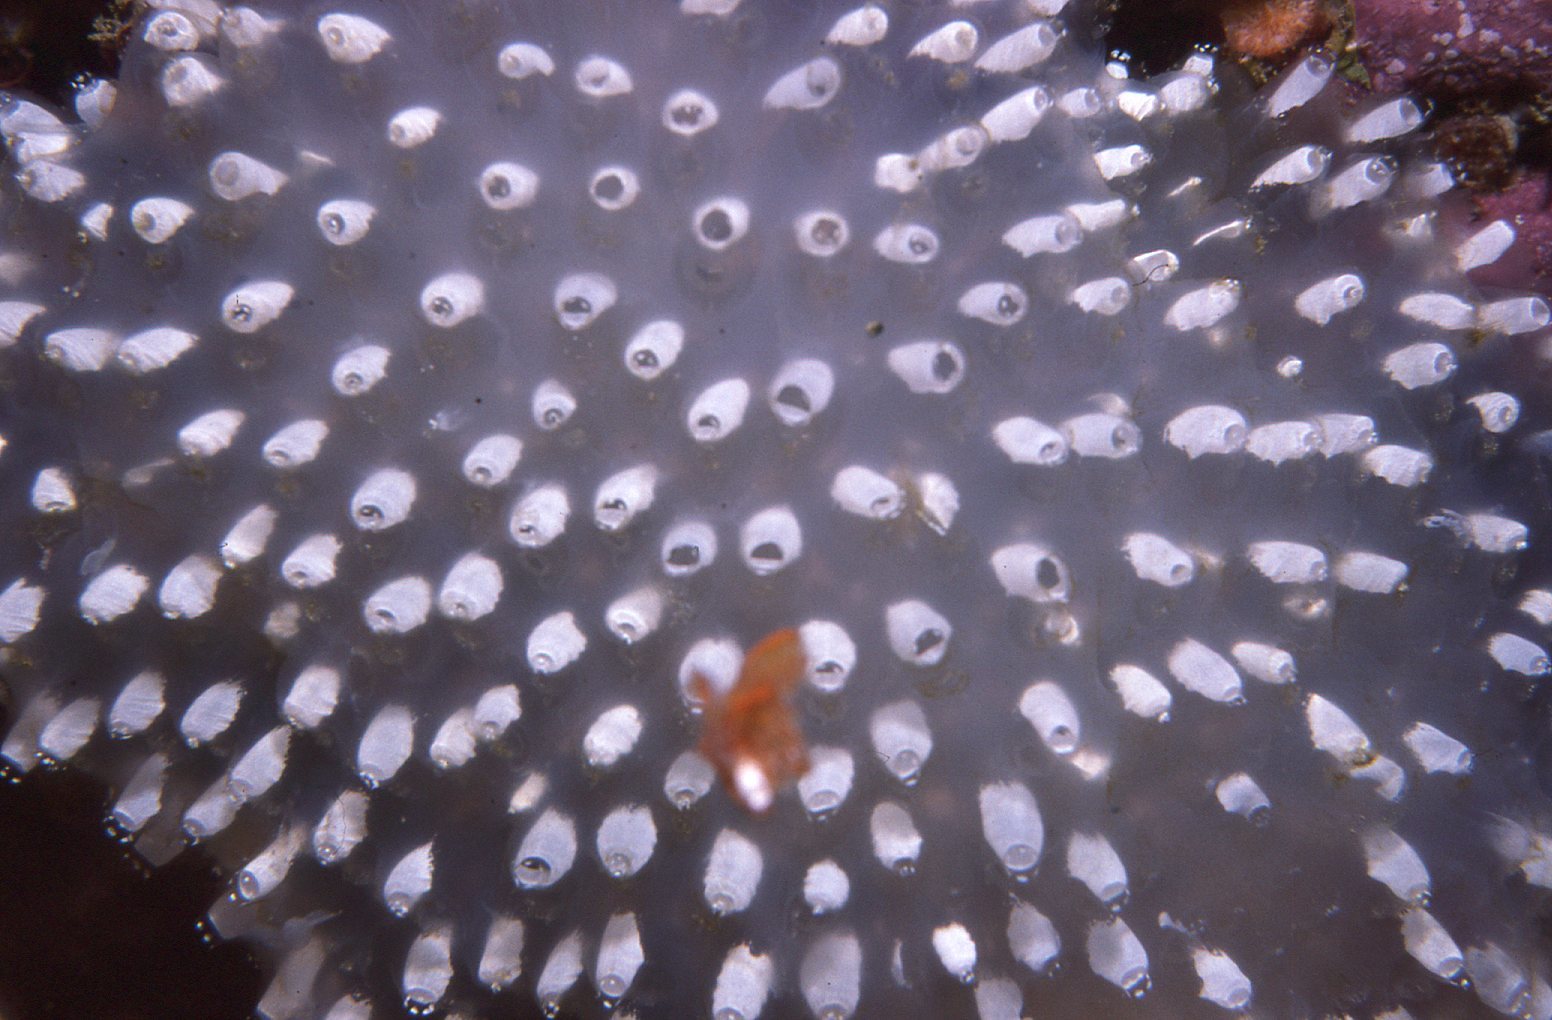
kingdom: Animalia
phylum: Chordata
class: Ascidiacea
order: Aplousobranchia
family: Polycitoridae
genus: Polycitor
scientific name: Polycitor giganteus
